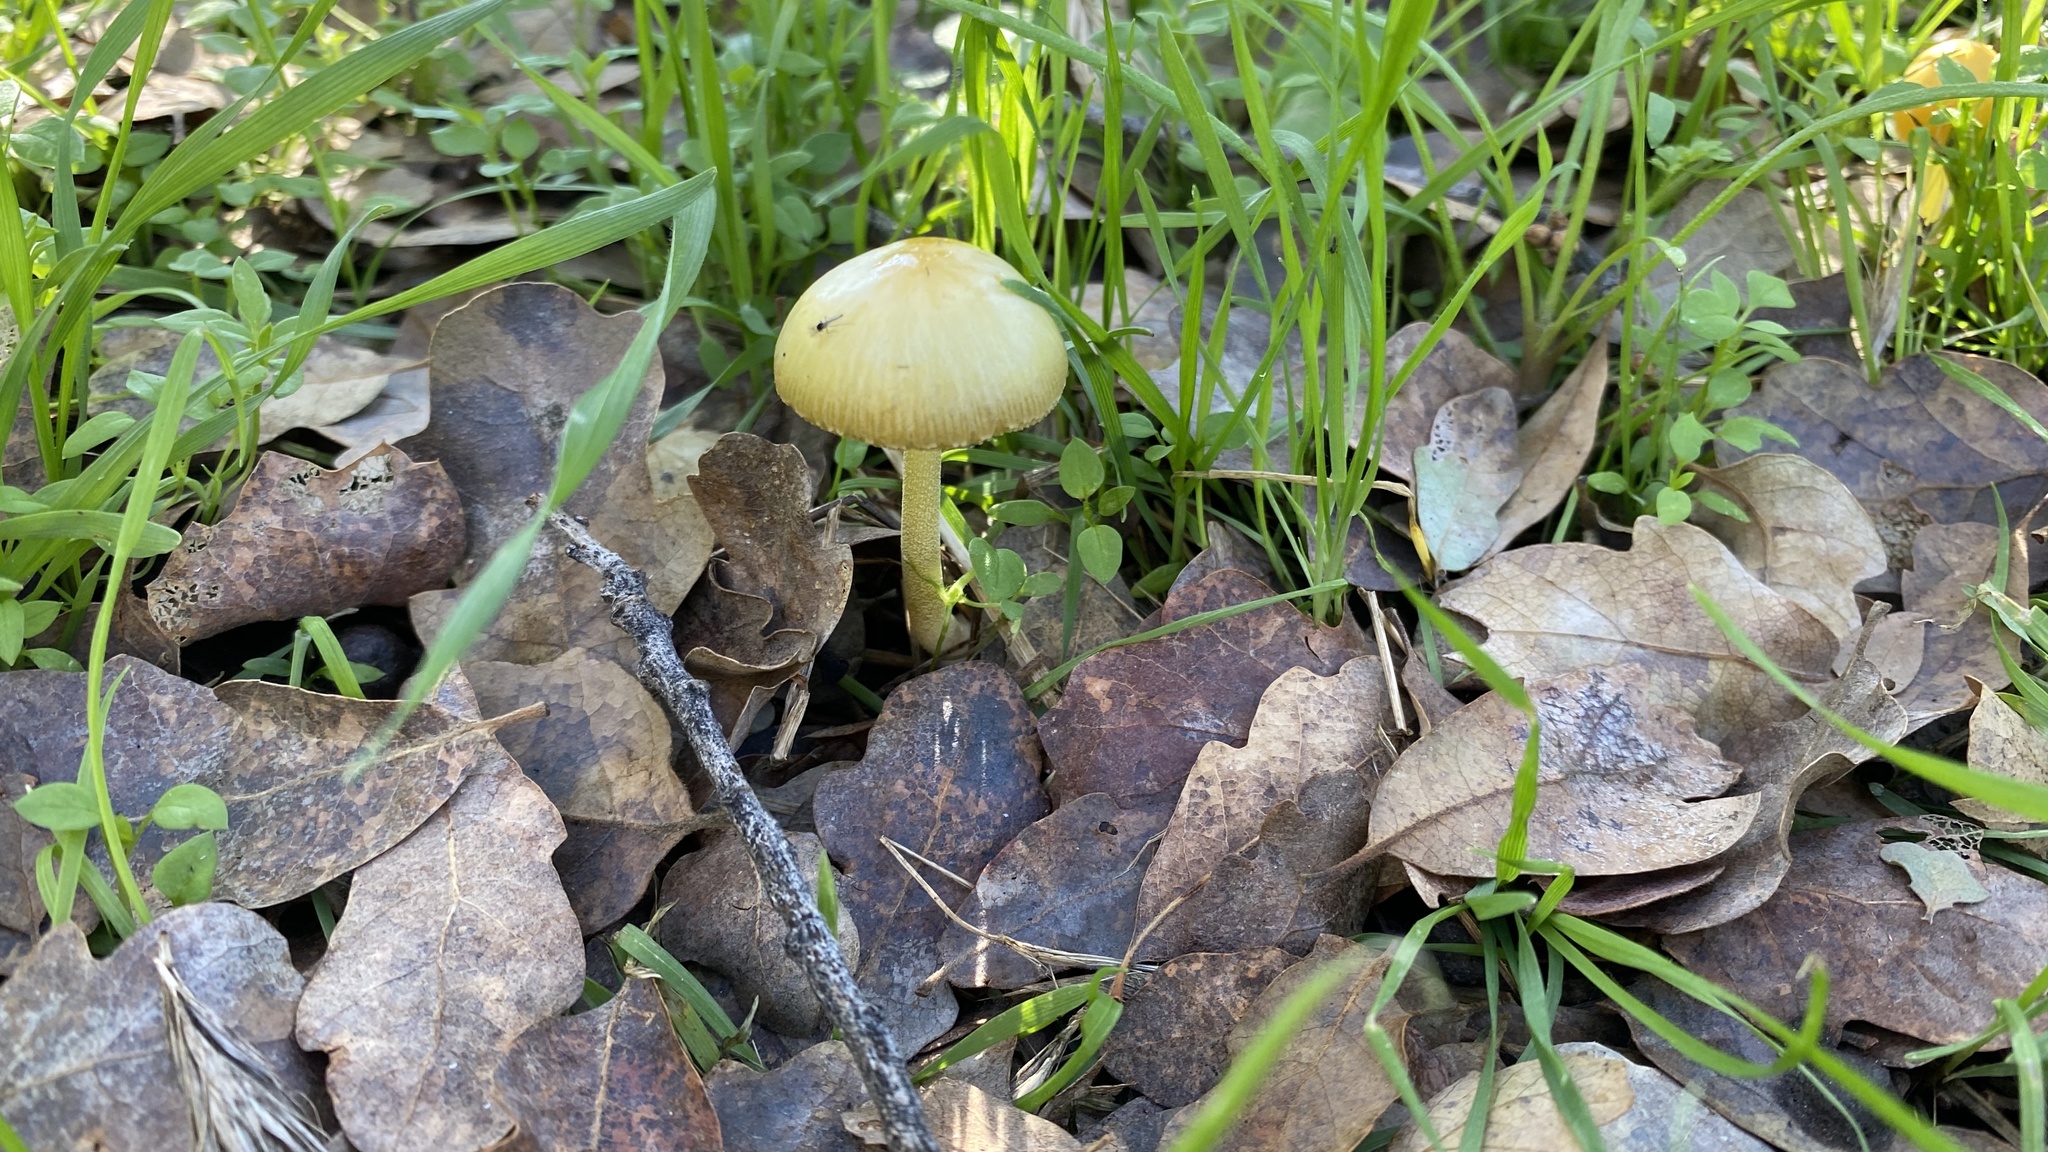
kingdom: Fungi
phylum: Basidiomycota
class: Agaricomycetes
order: Agaricales
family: Bolbitiaceae
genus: Bolbitius
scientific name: Bolbitius titubans
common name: Yellow fieldcap
